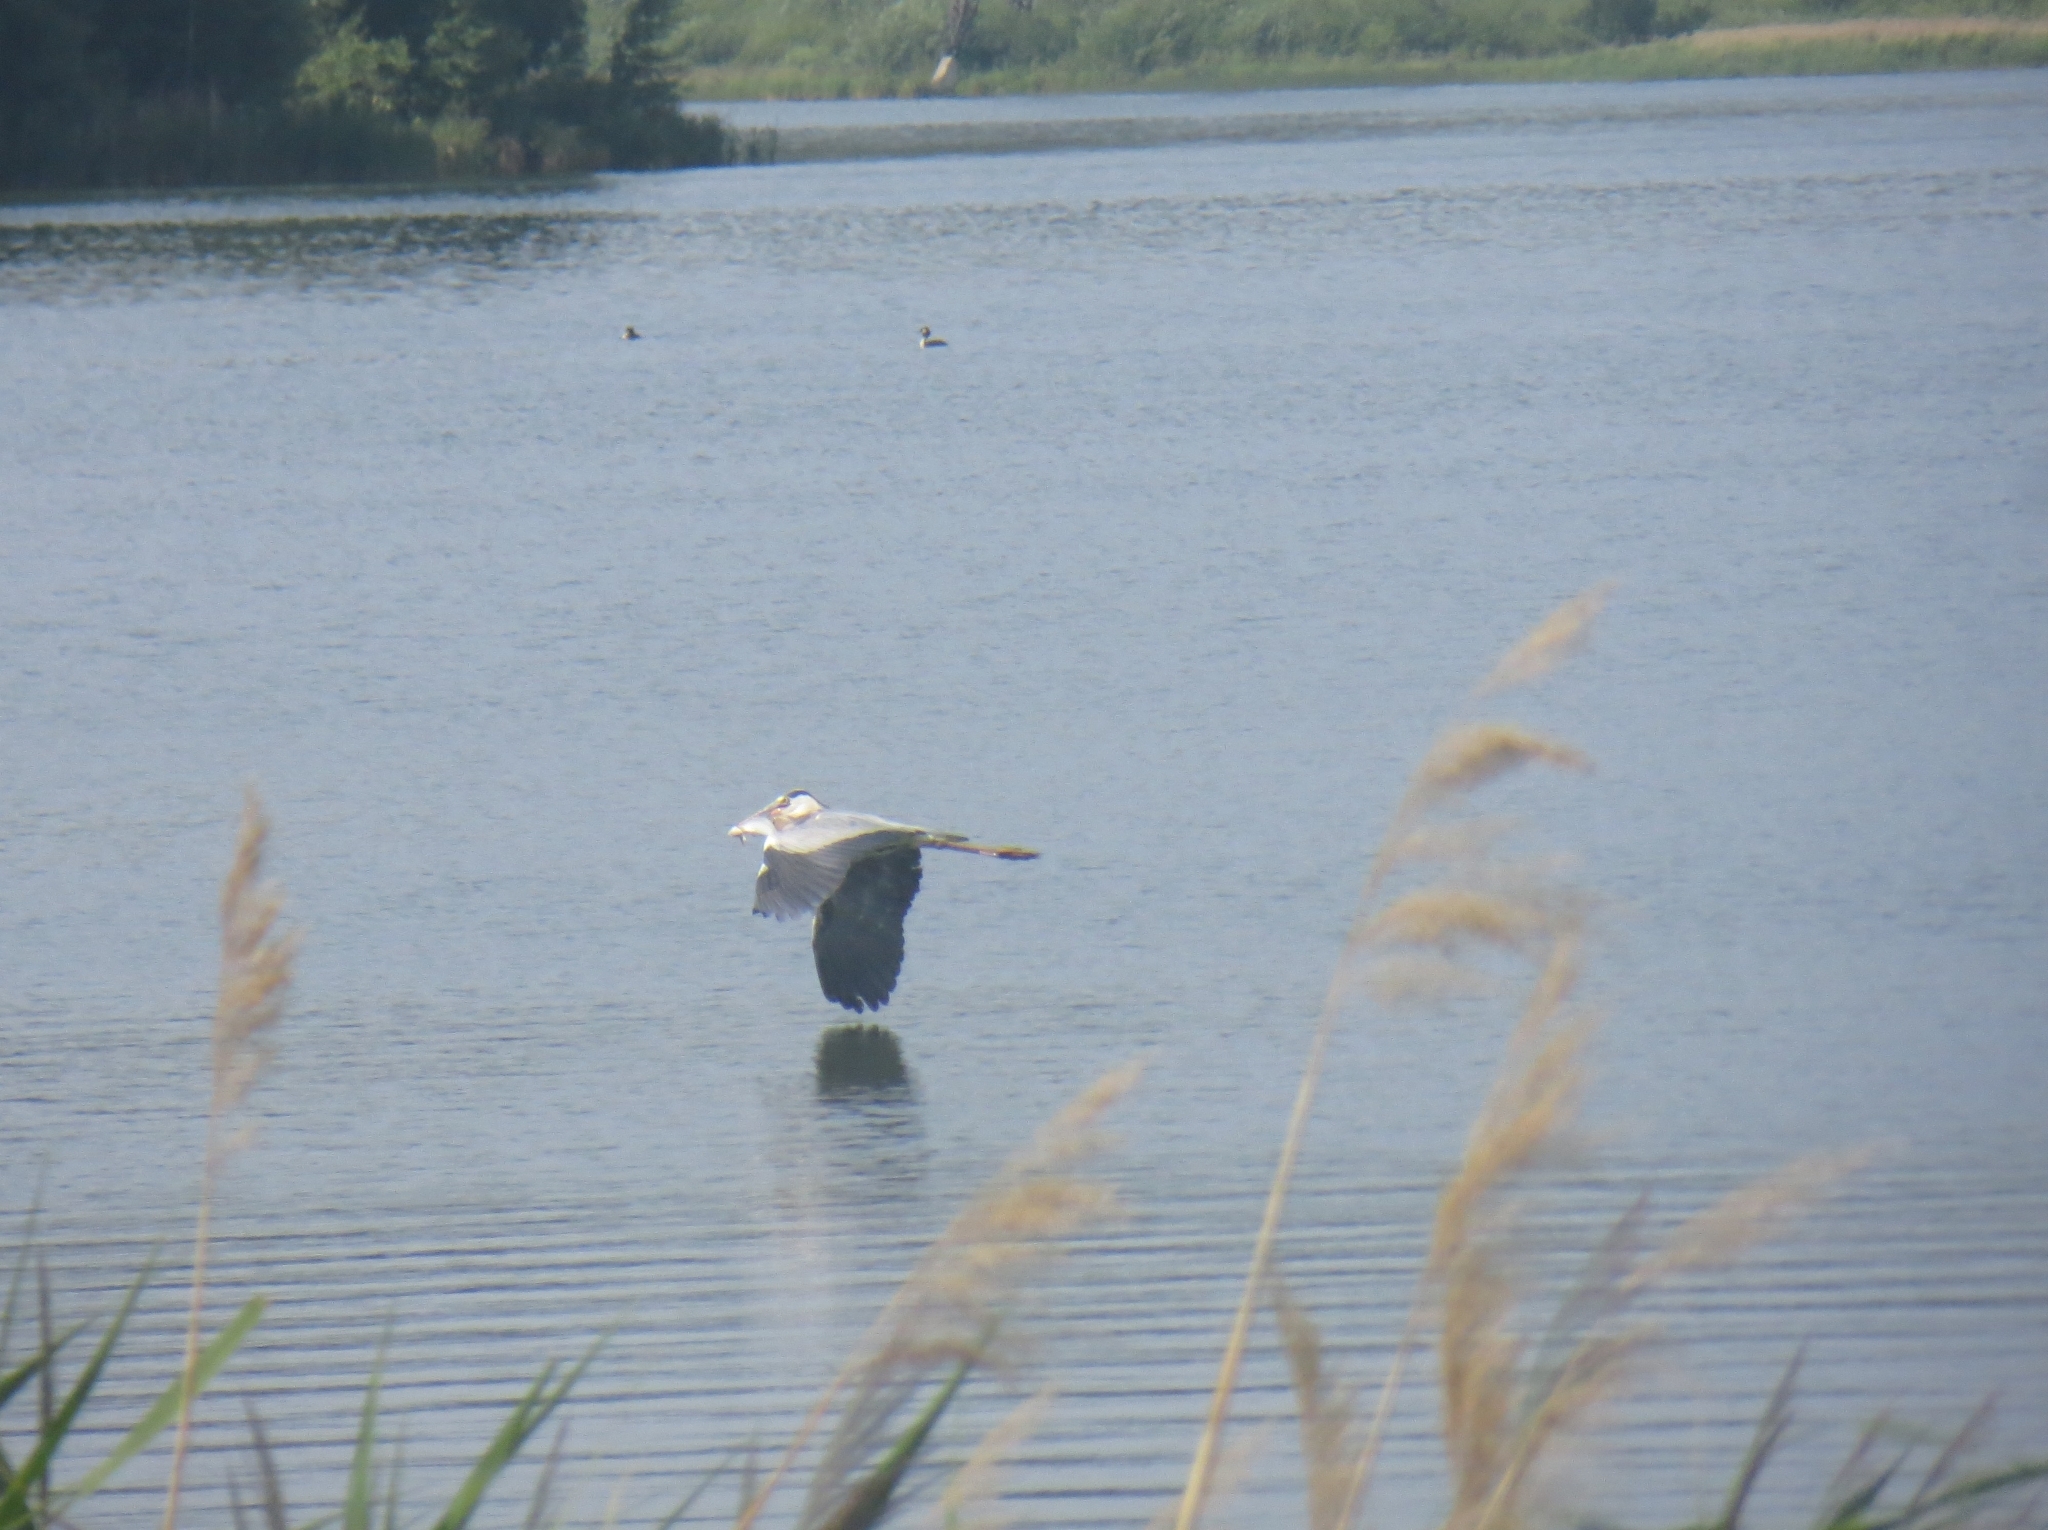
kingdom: Animalia
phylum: Chordata
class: Aves
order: Pelecaniformes
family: Ardeidae
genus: Ardea
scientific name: Ardea cinerea
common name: Grey heron
